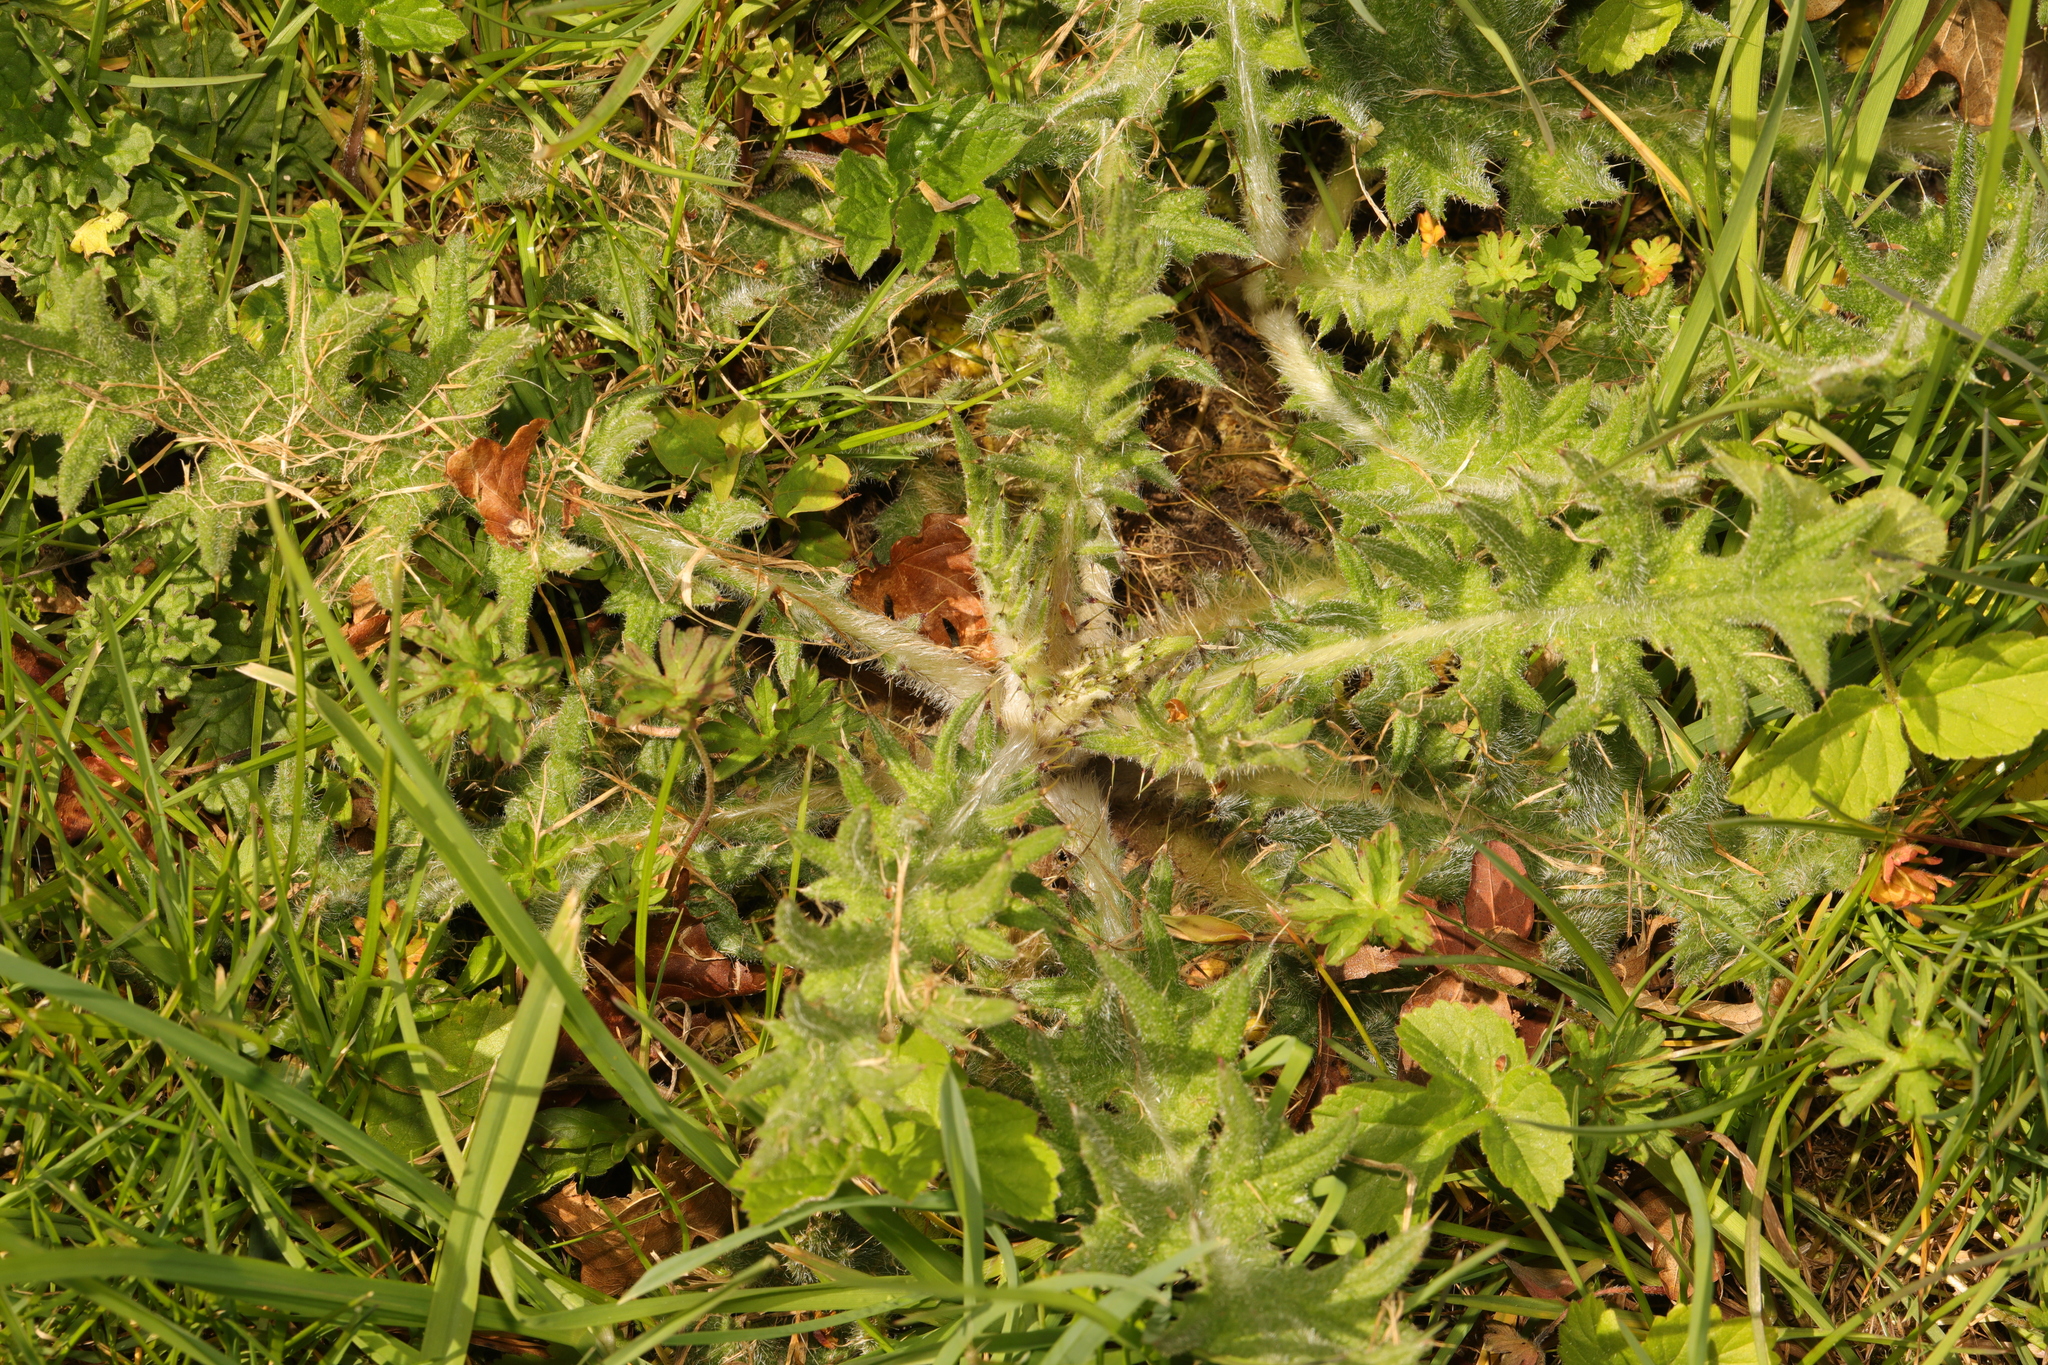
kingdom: Plantae
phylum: Tracheophyta
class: Magnoliopsida
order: Asterales
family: Asteraceae
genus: Cirsium
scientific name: Cirsium vulgare
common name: Bull thistle
